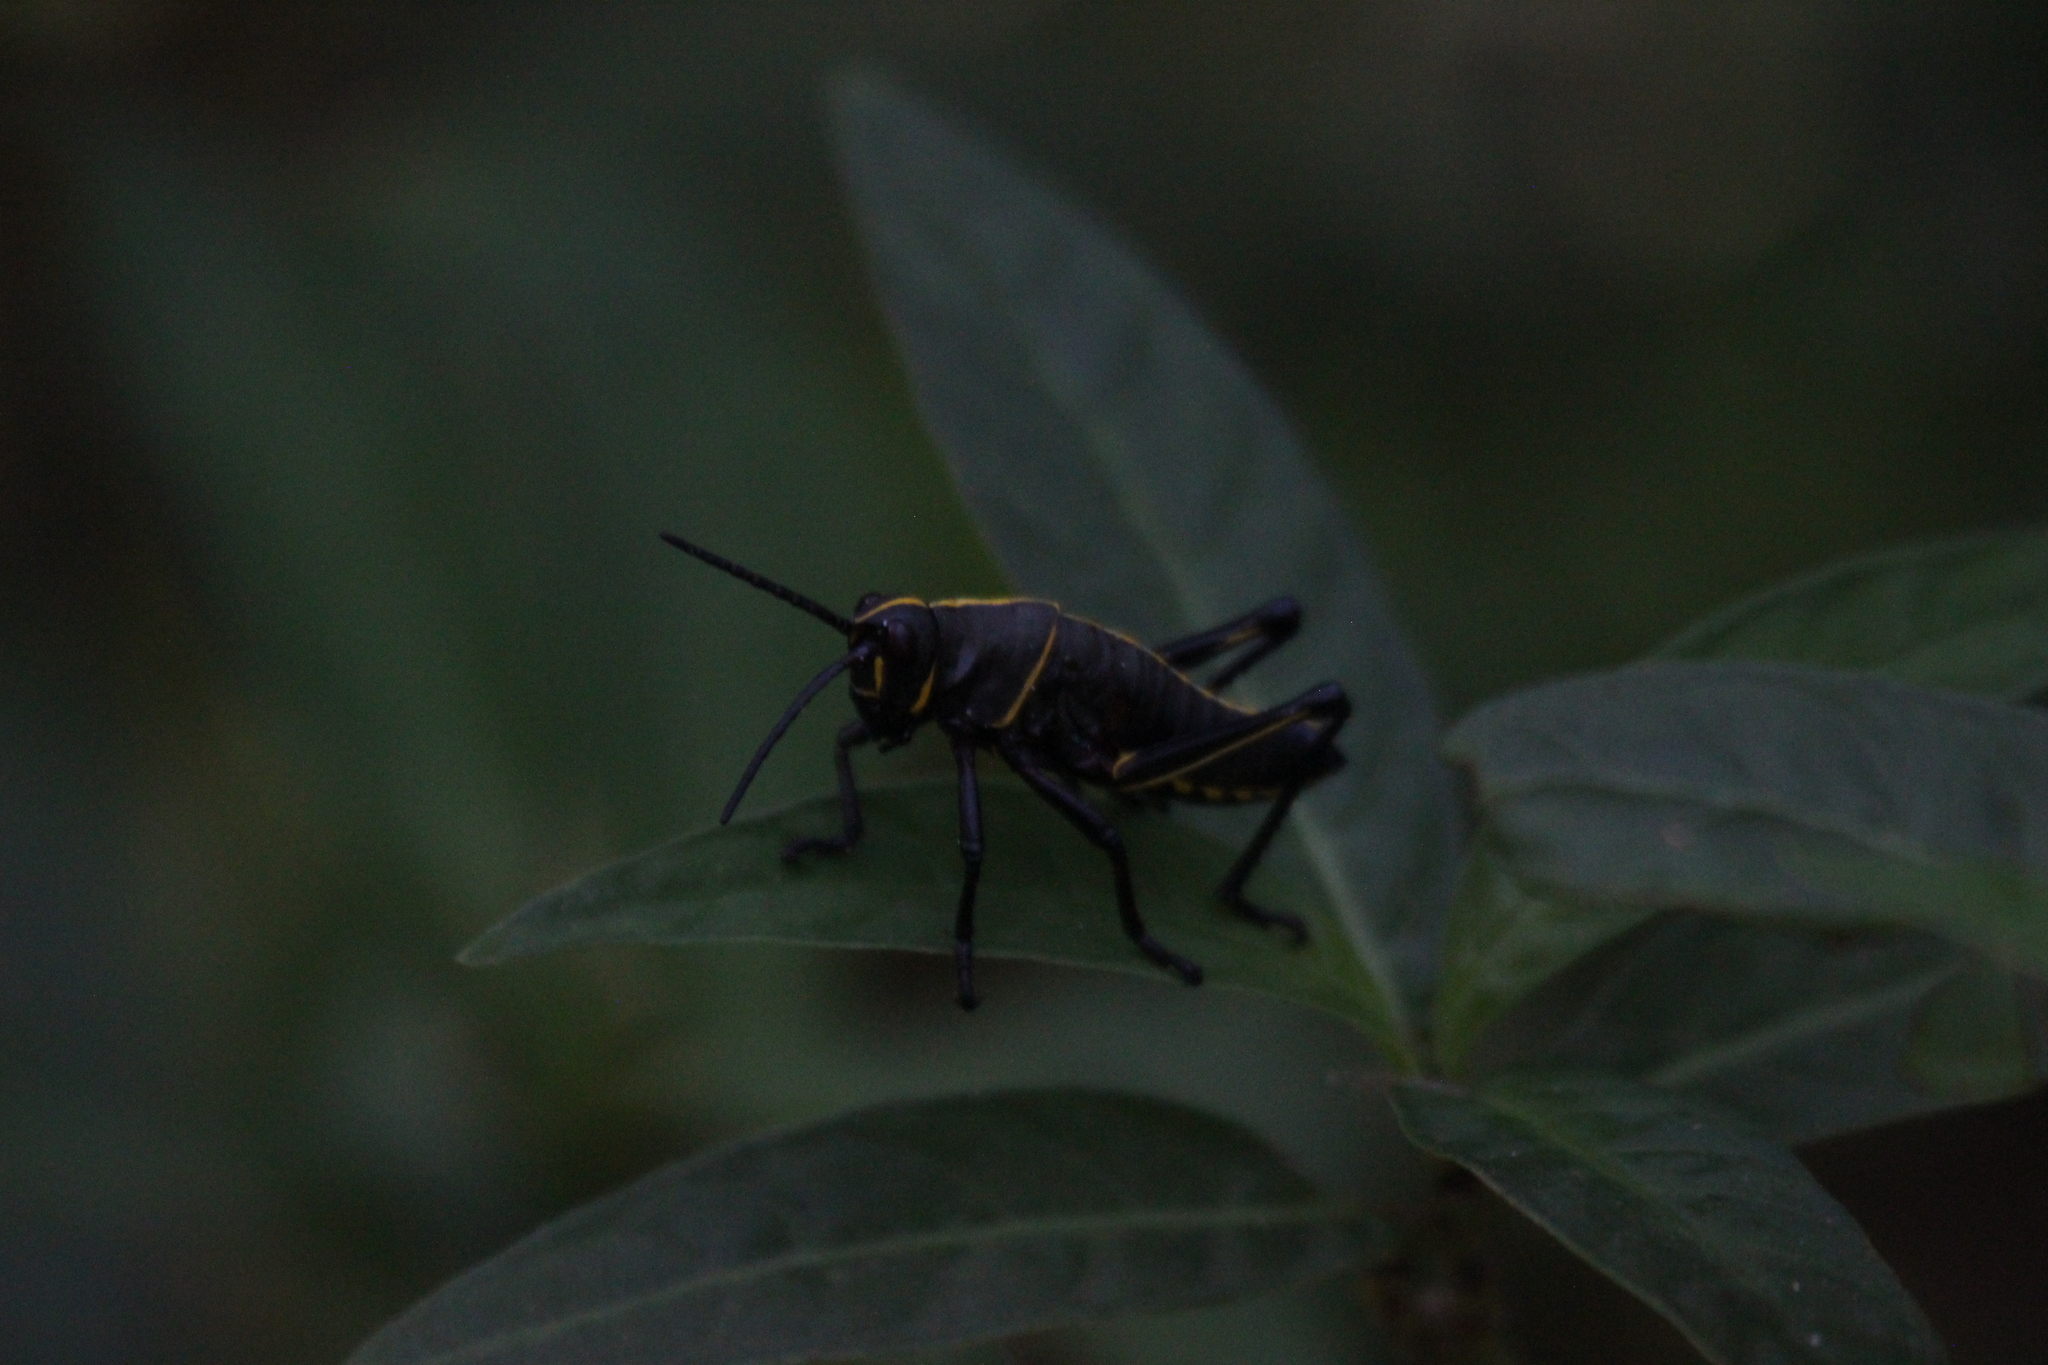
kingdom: Animalia
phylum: Arthropoda
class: Insecta
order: Orthoptera
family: Romaleidae
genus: Romalea
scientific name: Romalea microptera
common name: Eastern lubber grasshopper
